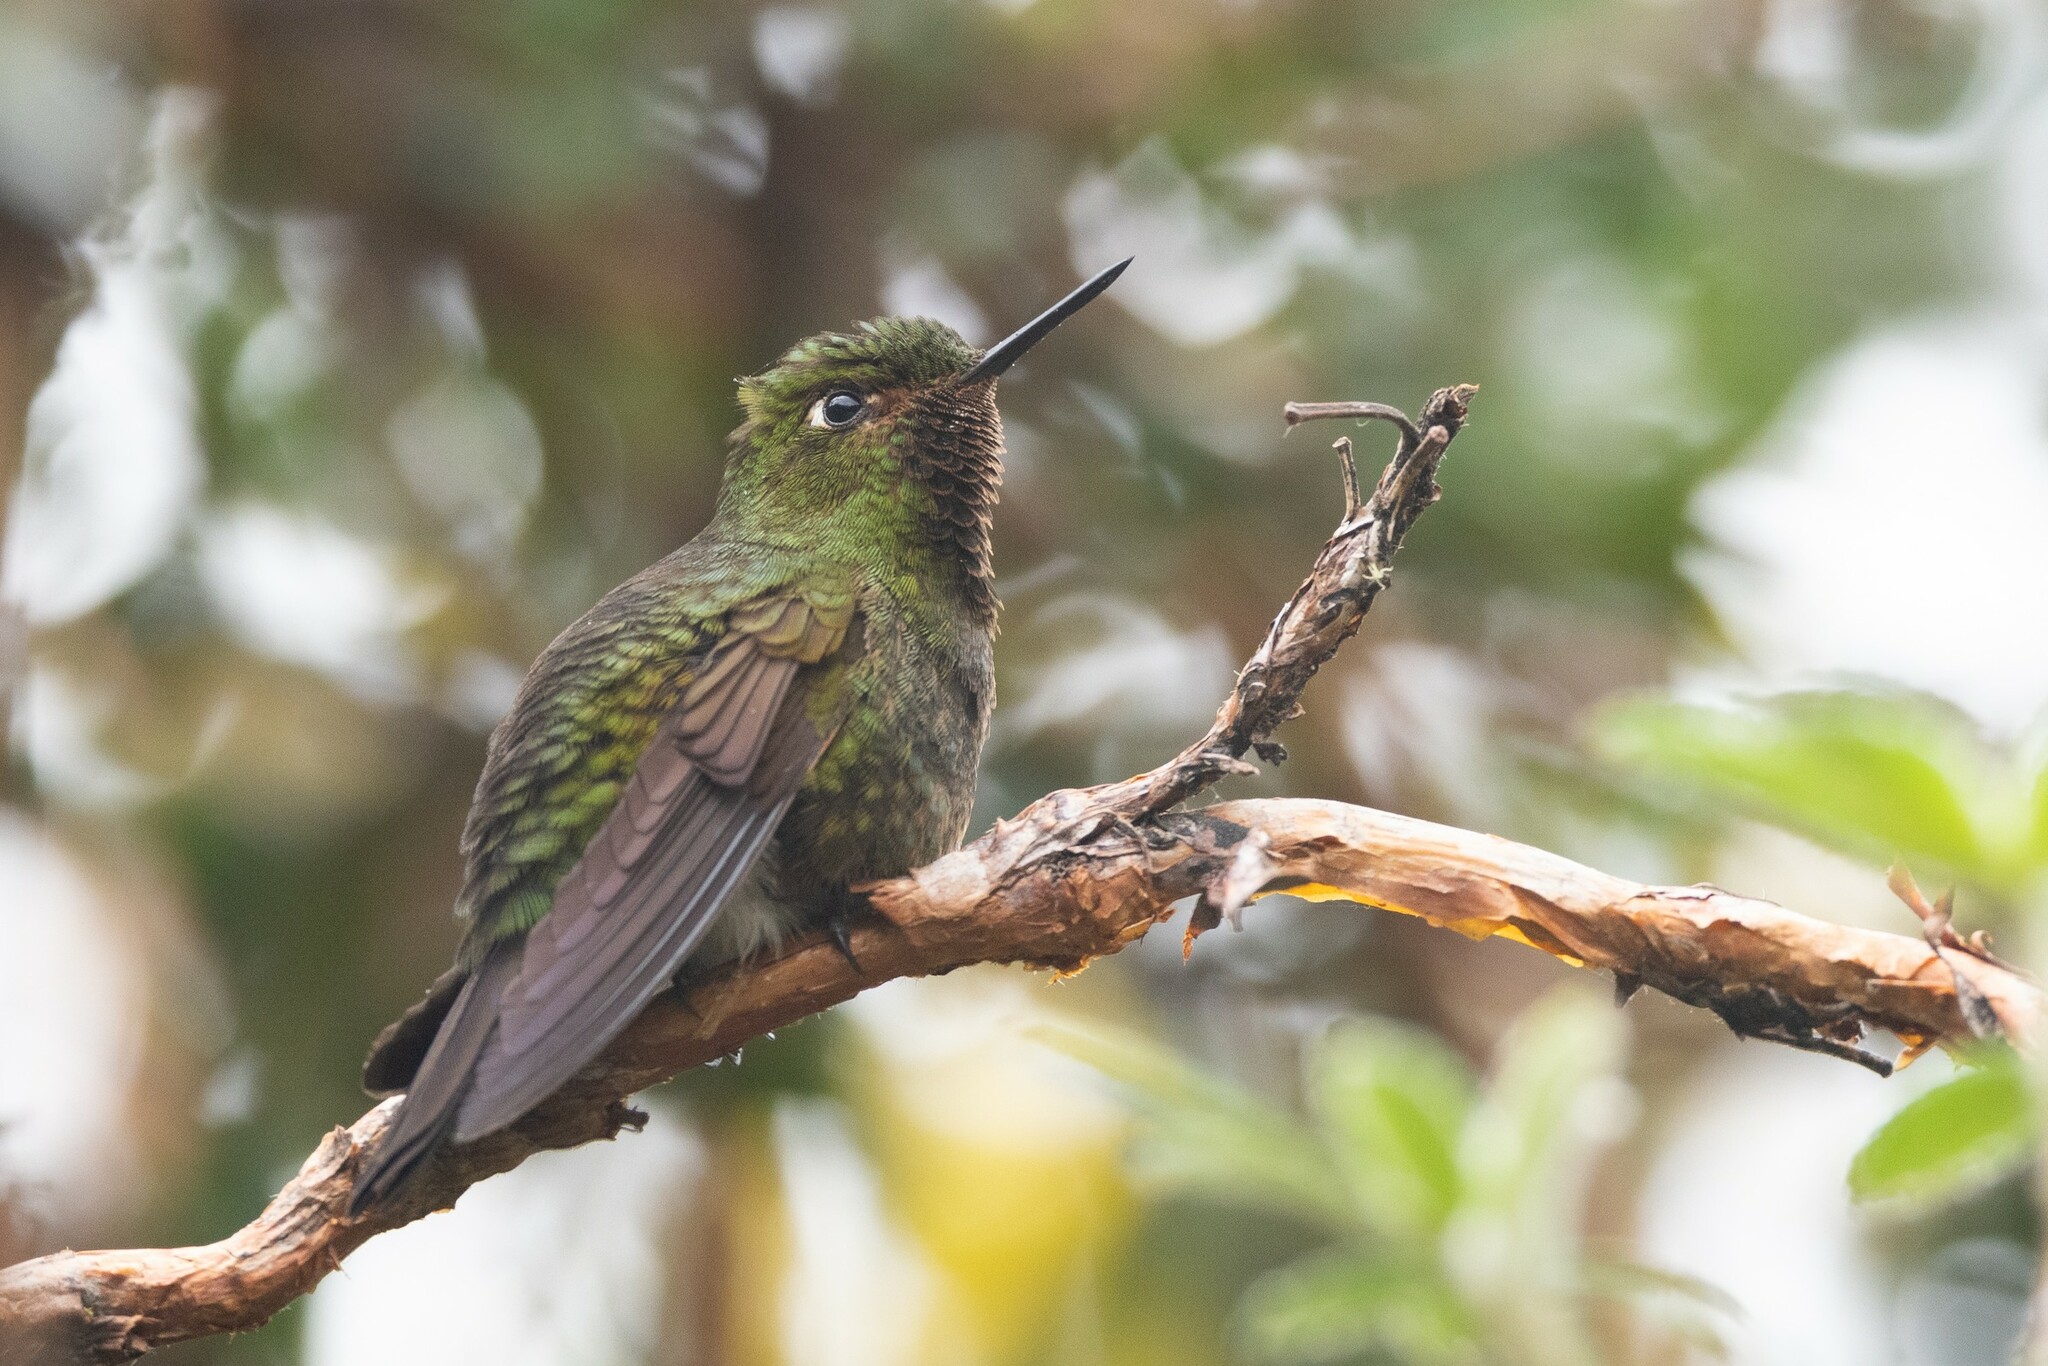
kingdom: Animalia
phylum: Chordata
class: Aves
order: Apodiformes
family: Trochilidae
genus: Metallura
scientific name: Metallura williami
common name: Viridian metaltail
